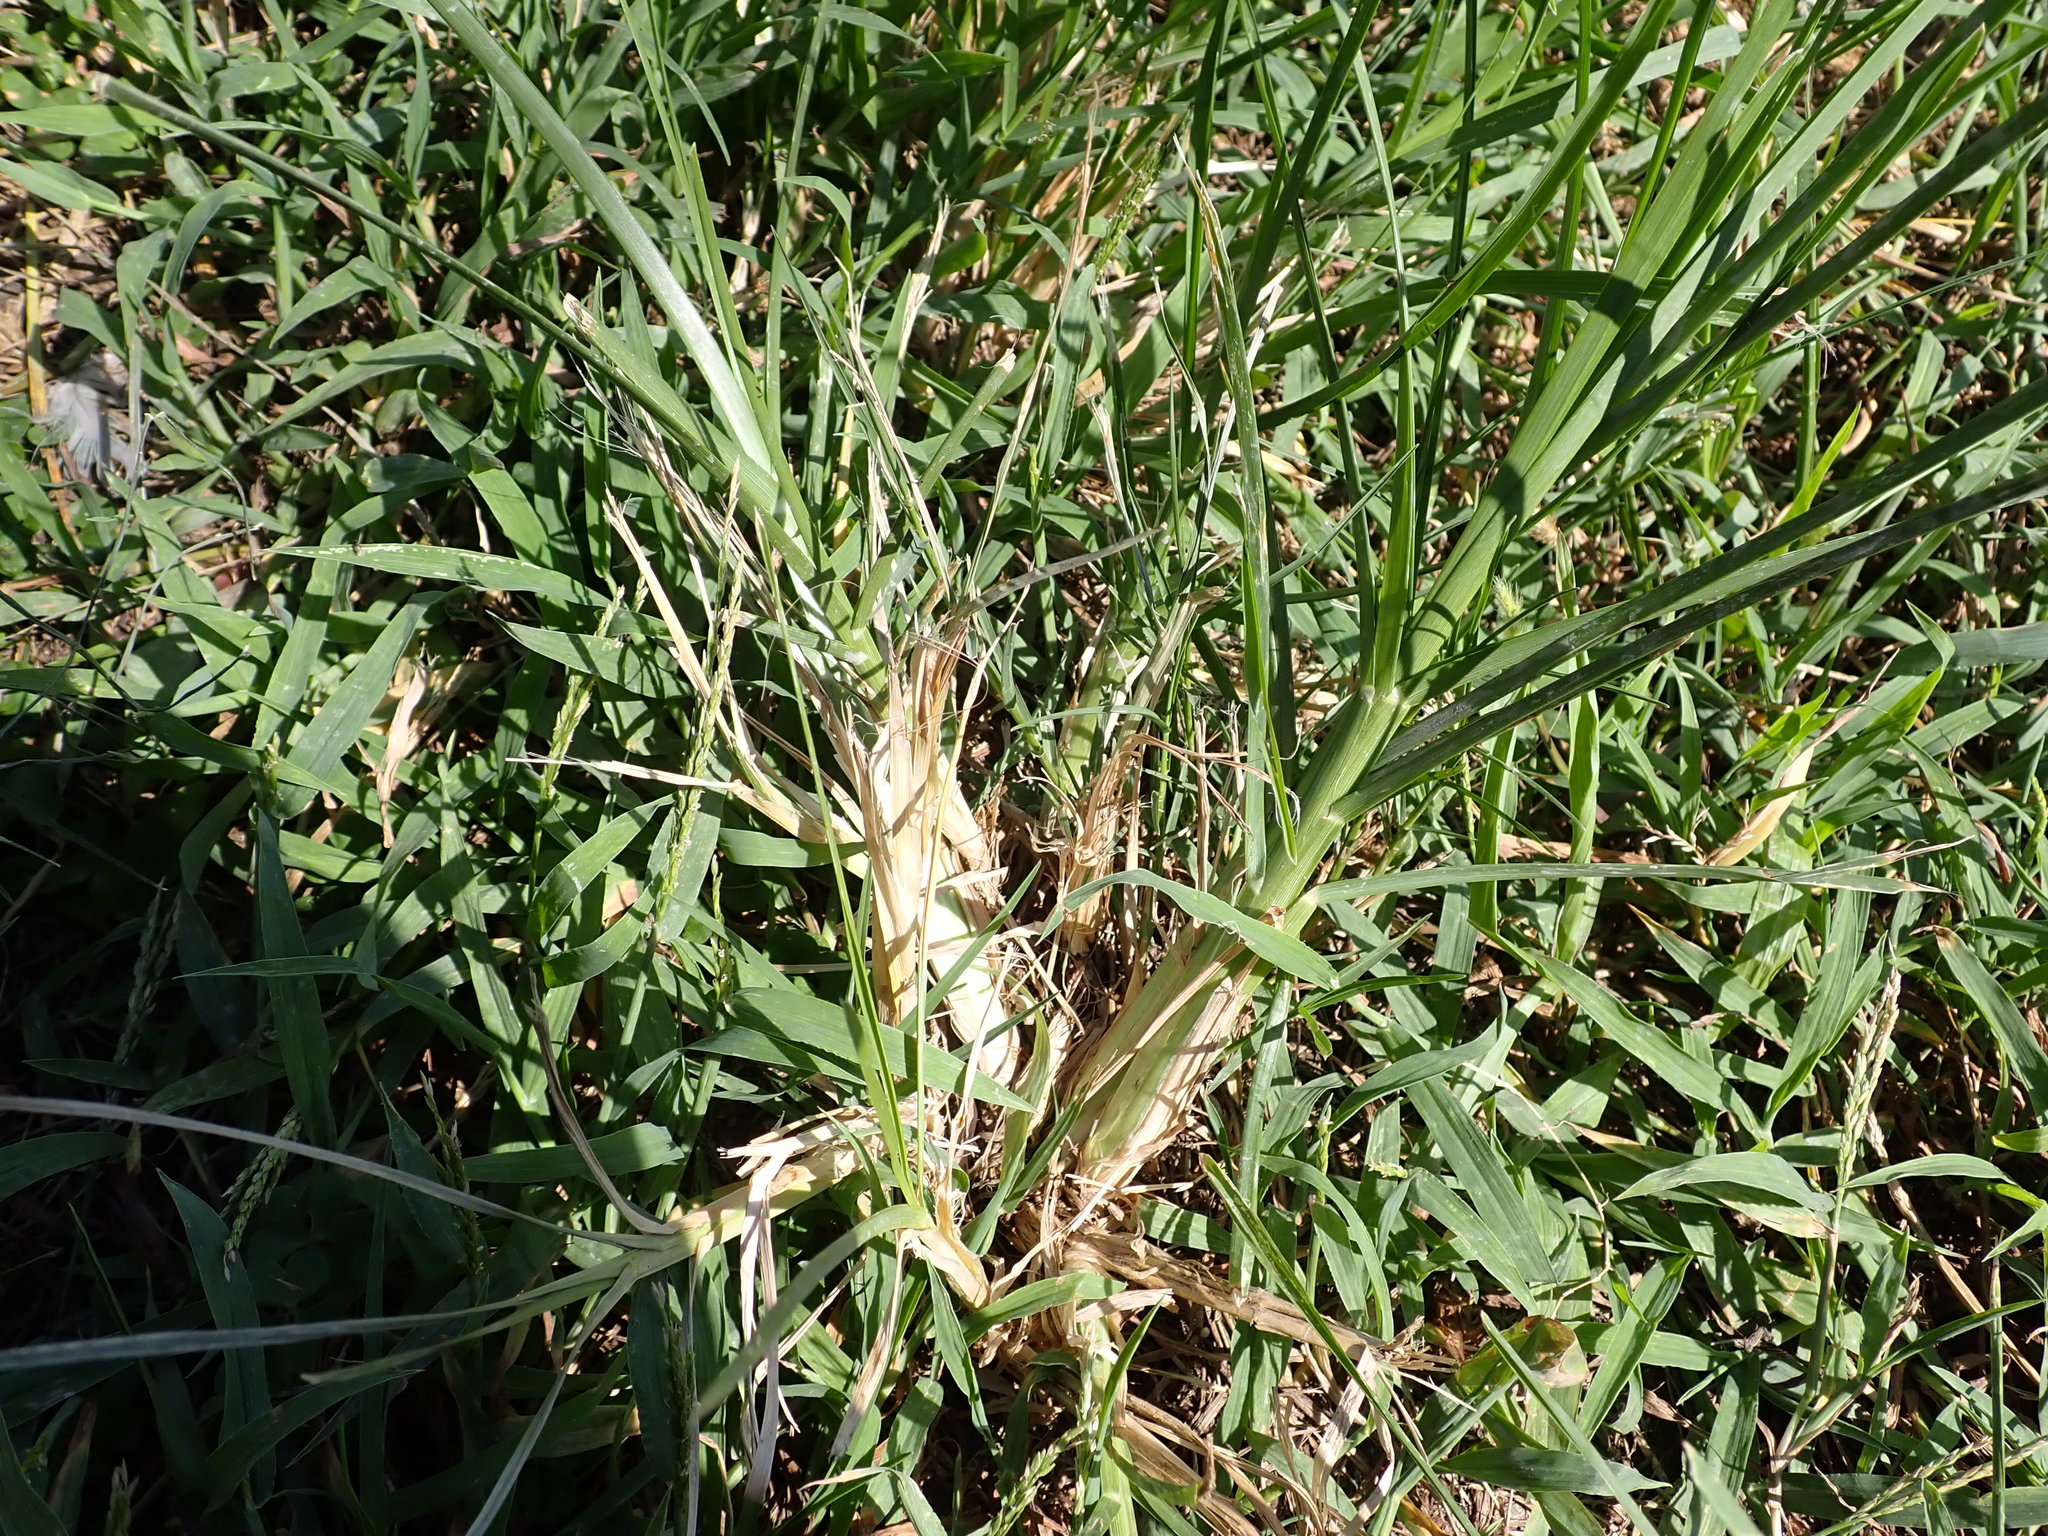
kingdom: Plantae
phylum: Tracheophyta
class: Liliopsida
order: Poales
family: Poaceae
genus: Eleusine
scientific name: Eleusine indica
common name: Yard-grass
